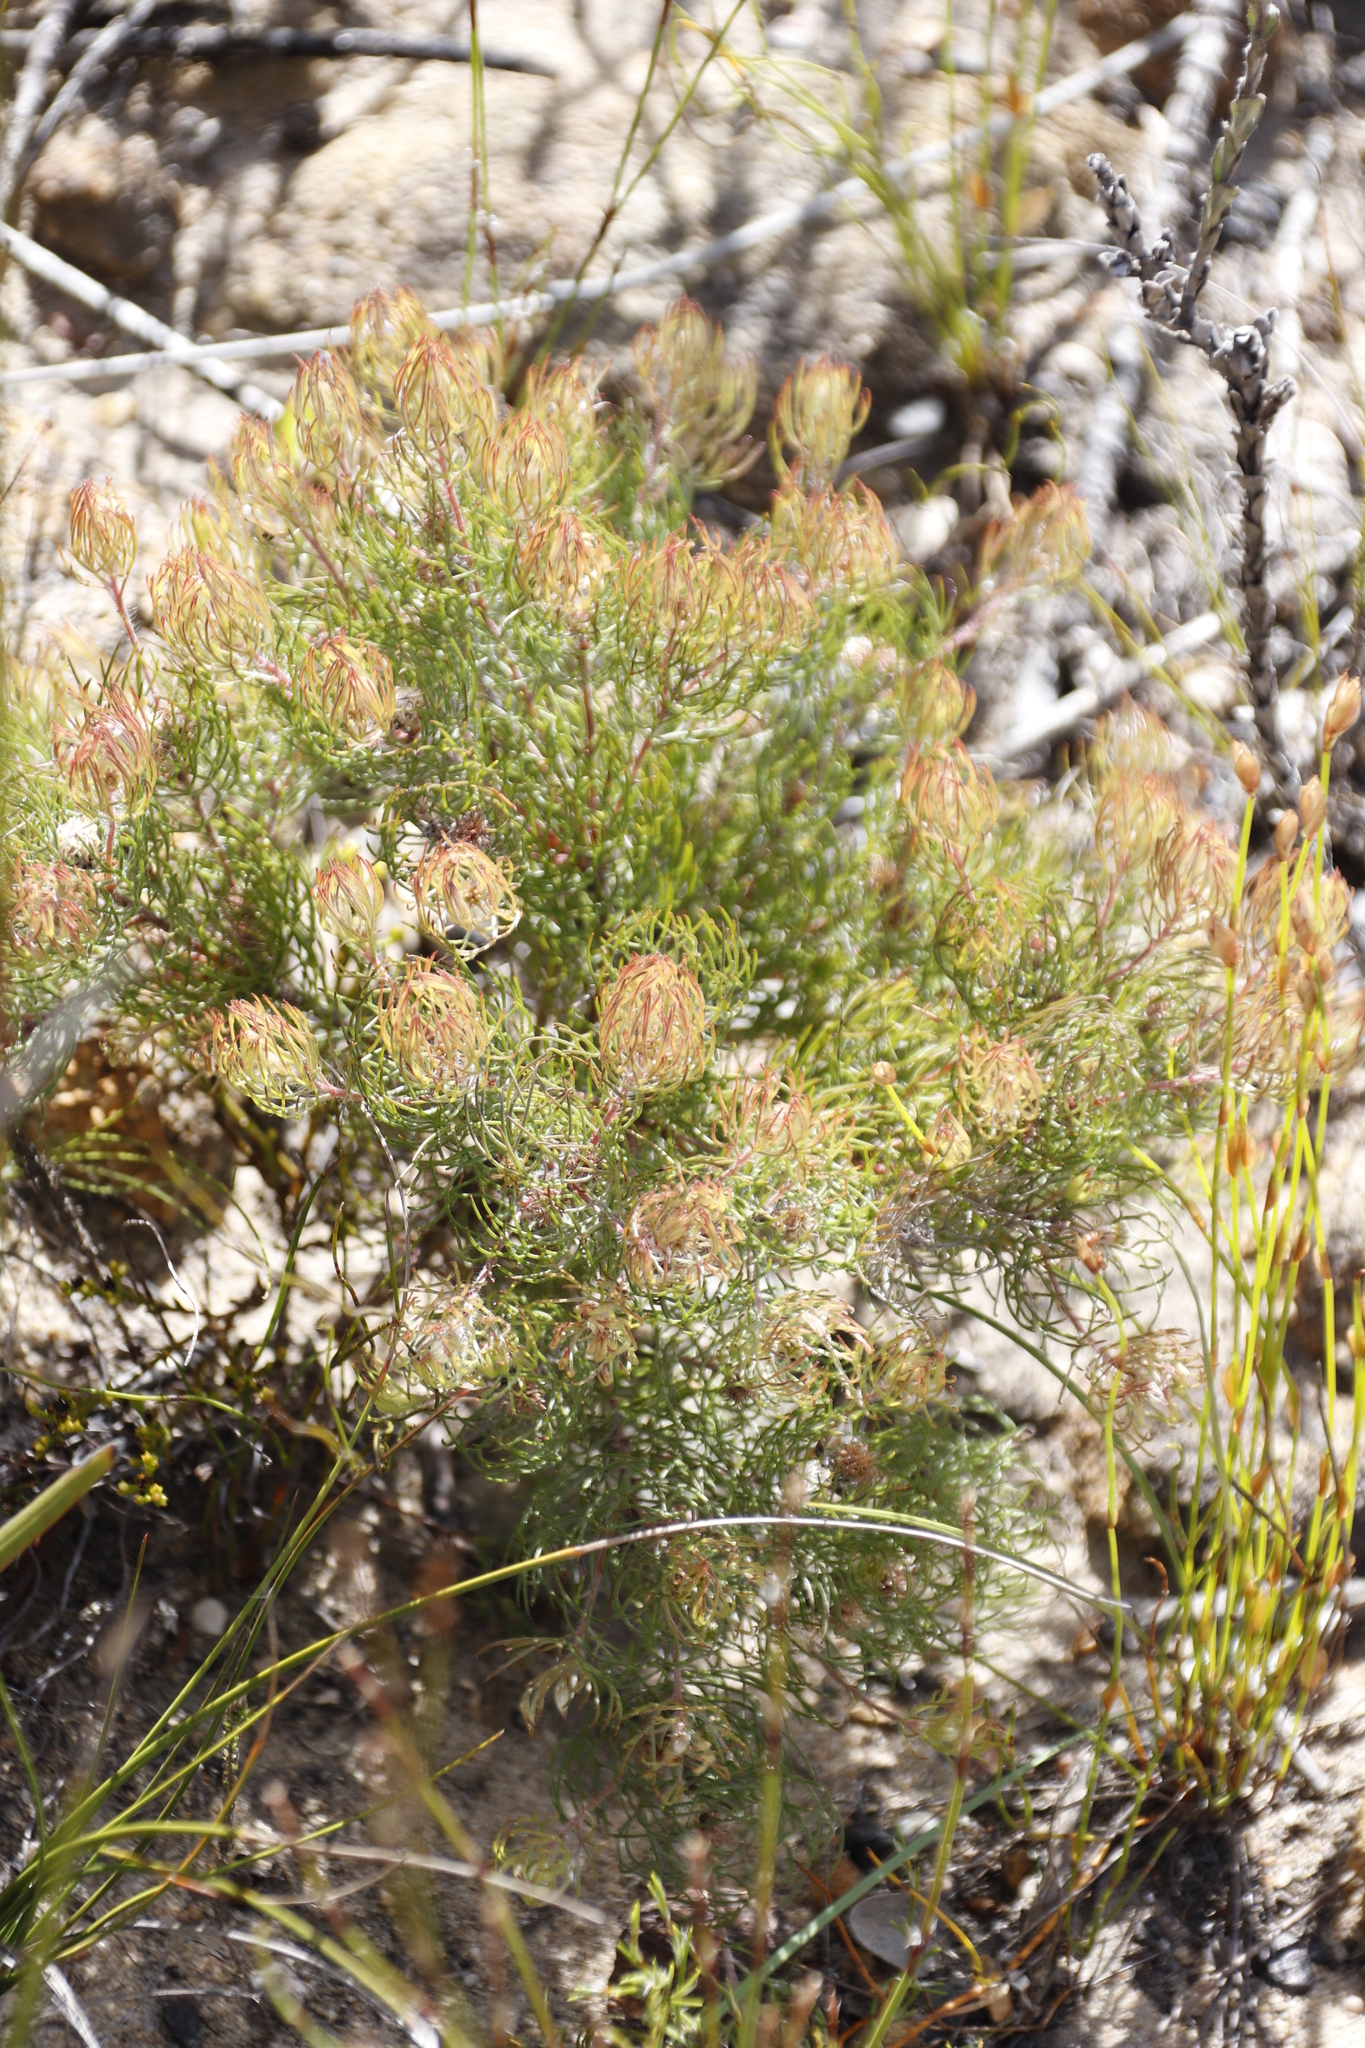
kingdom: Plantae
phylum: Tracheophyta
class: Magnoliopsida
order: Proteales
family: Proteaceae
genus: Serruria
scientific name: Serruria inconspicua
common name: Cryptic spiderhead
